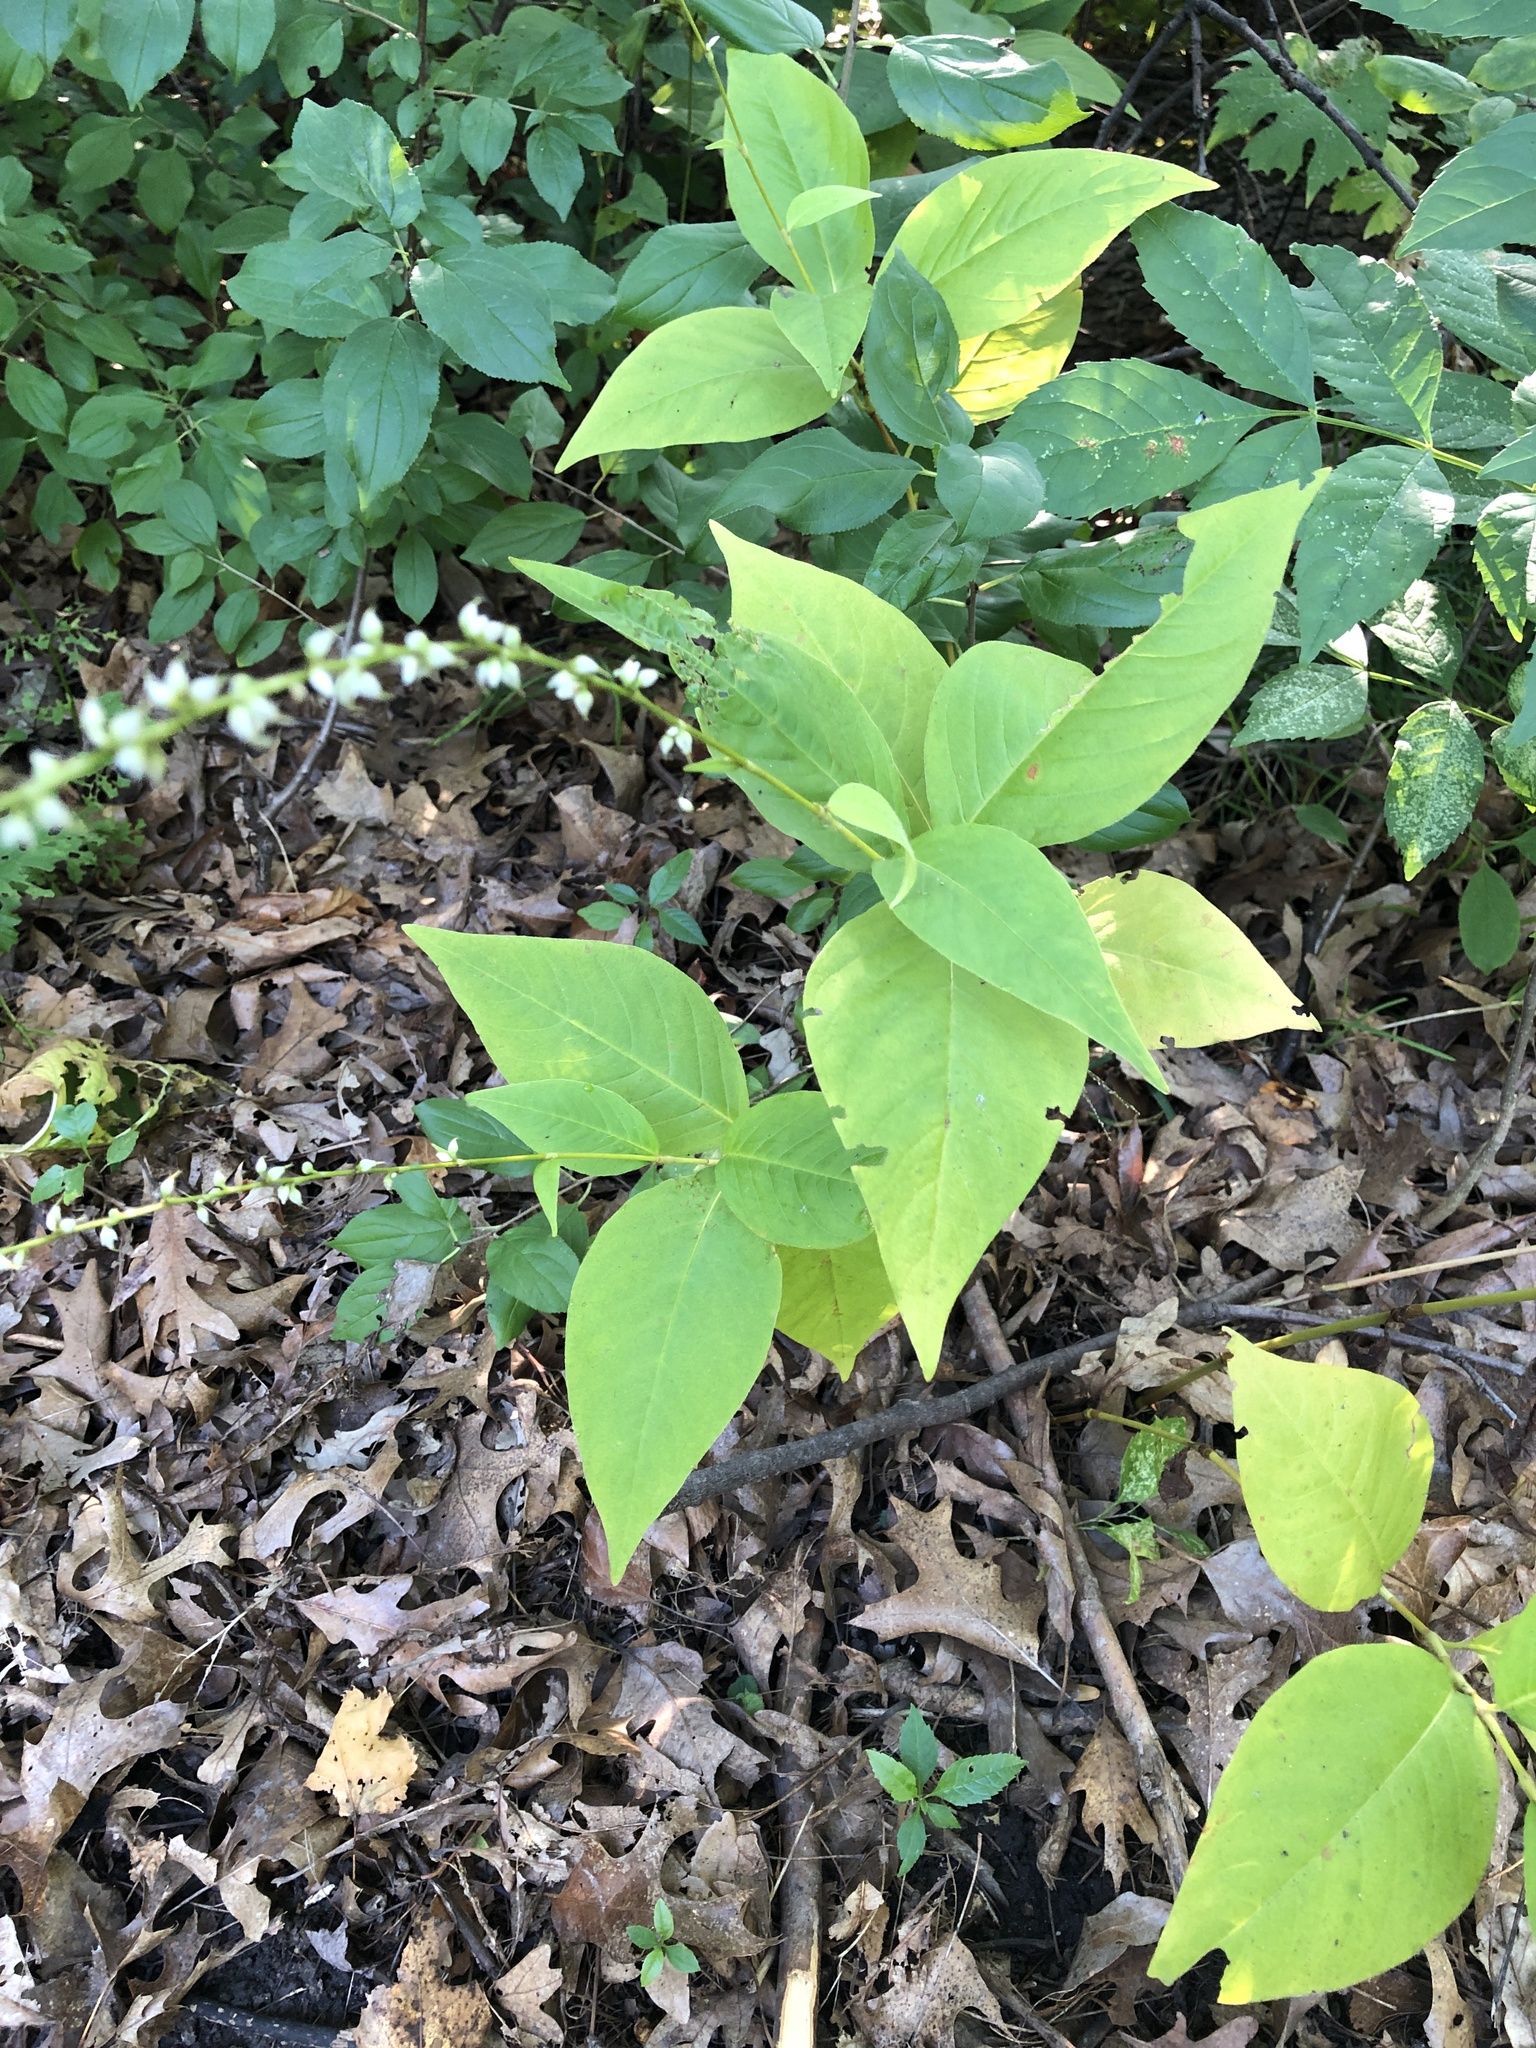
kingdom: Plantae
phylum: Tracheophyta
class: Magnoliopsida
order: Caryophyllales
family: Polygonaceae
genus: Persicaria
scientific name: Persicaria virginiana
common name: Jumpseed
